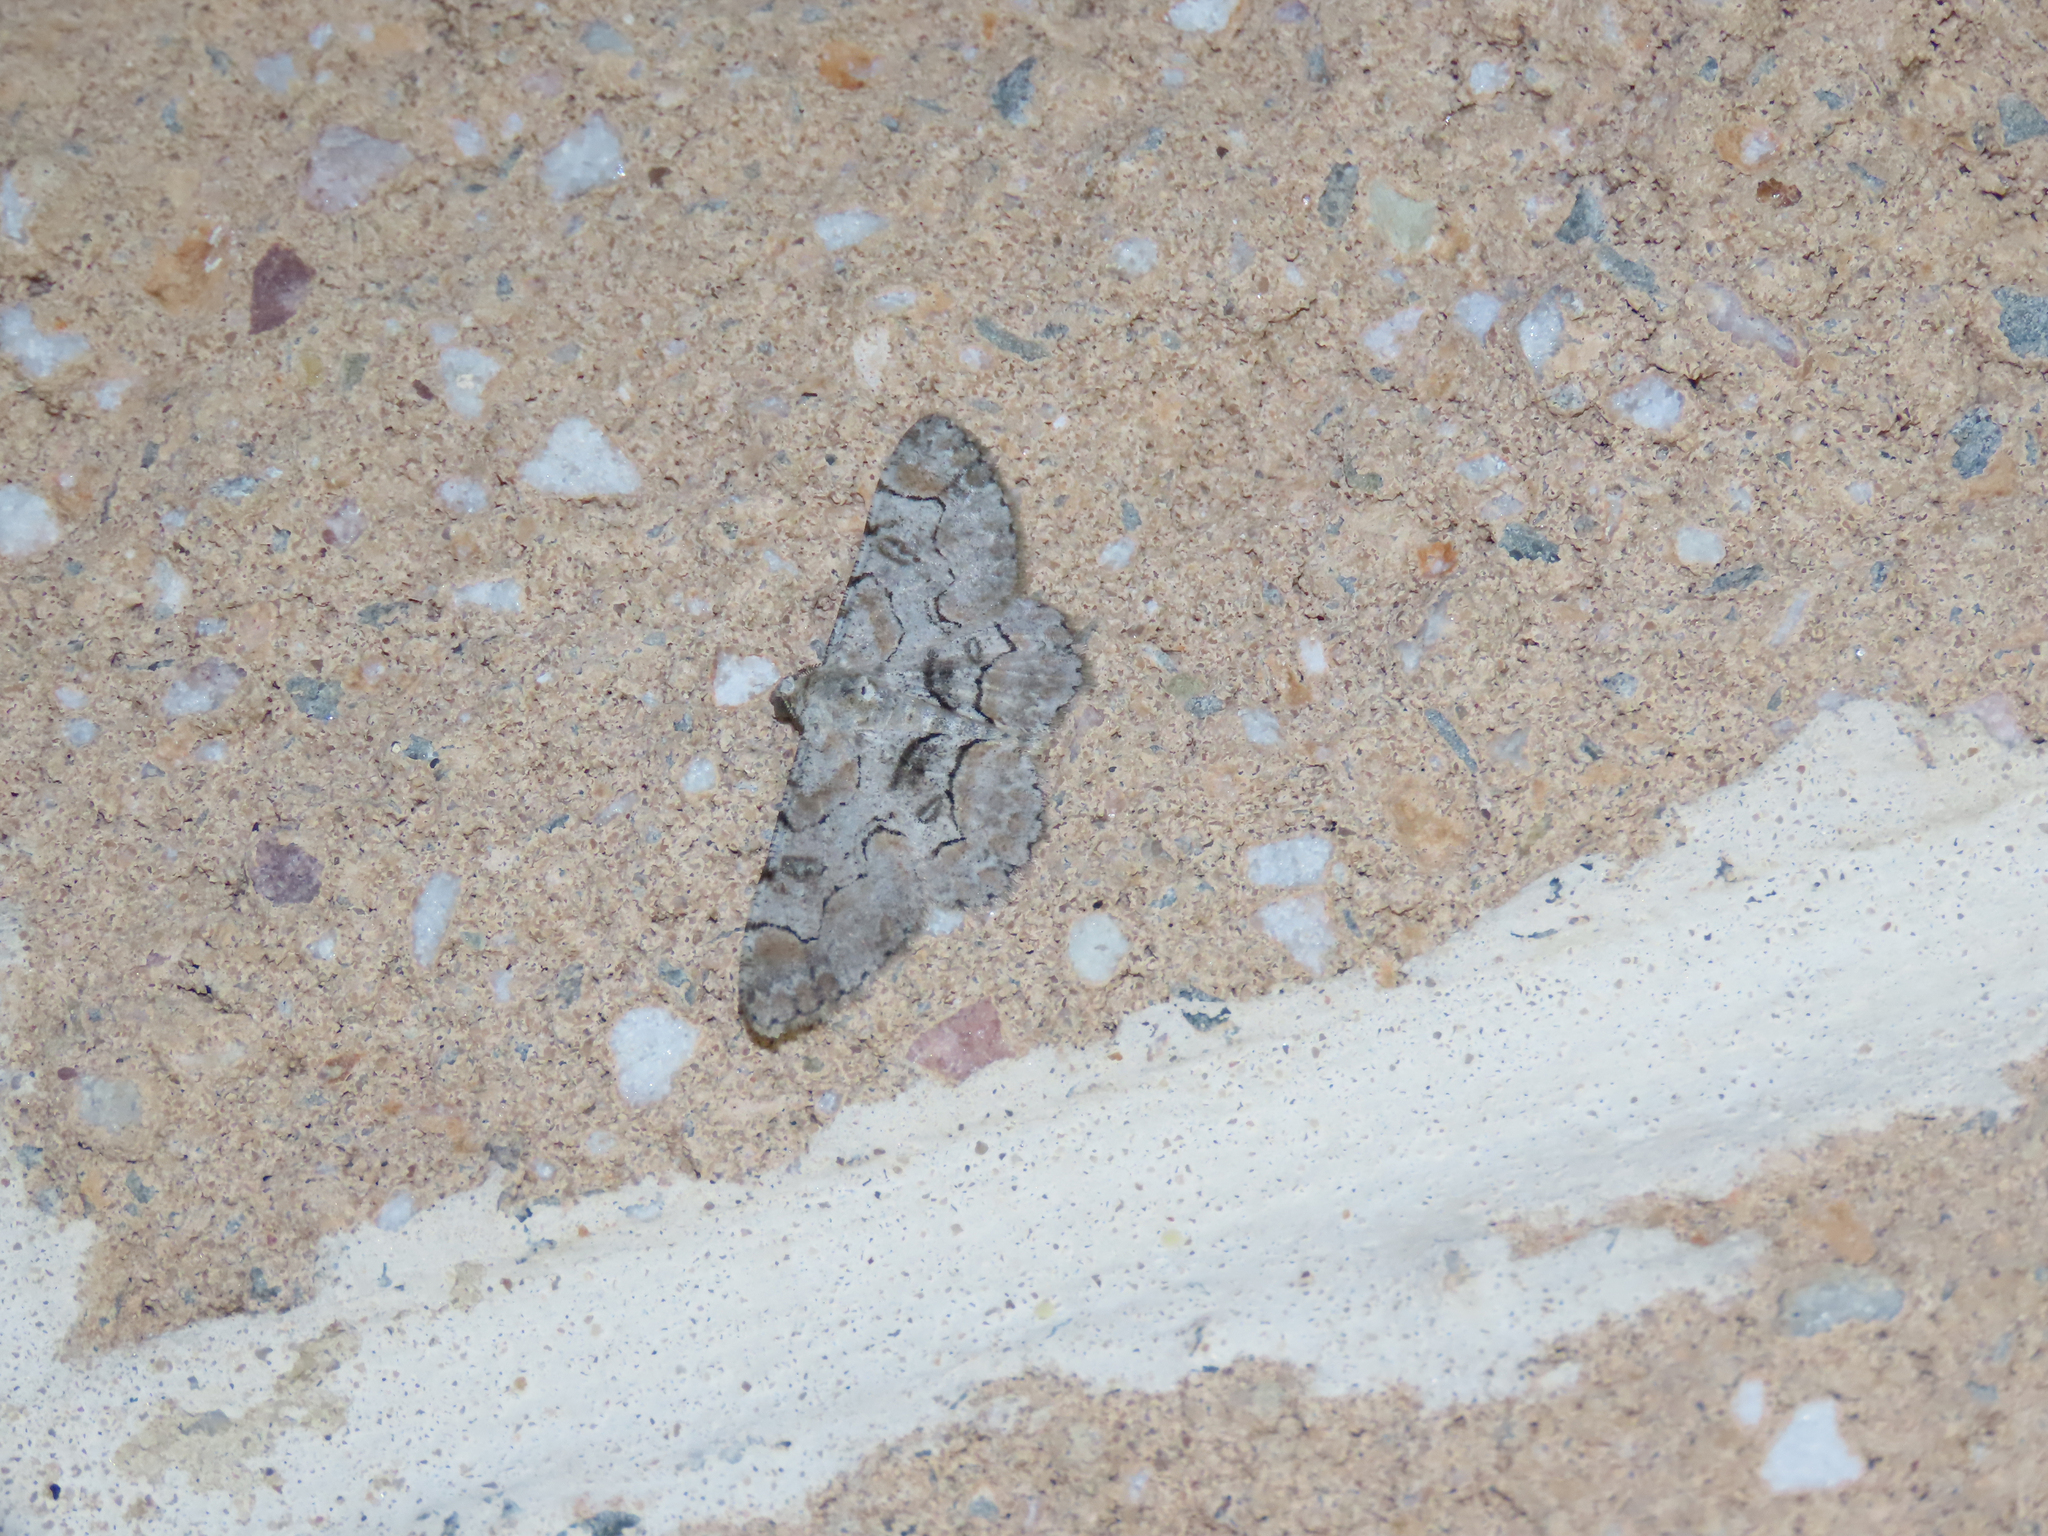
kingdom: Animalia
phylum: Arthropoda
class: Insecta
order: Lepidoptera
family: Geometridae
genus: Iridopsis
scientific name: Iridopsis larvaria
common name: Bent-line gray
